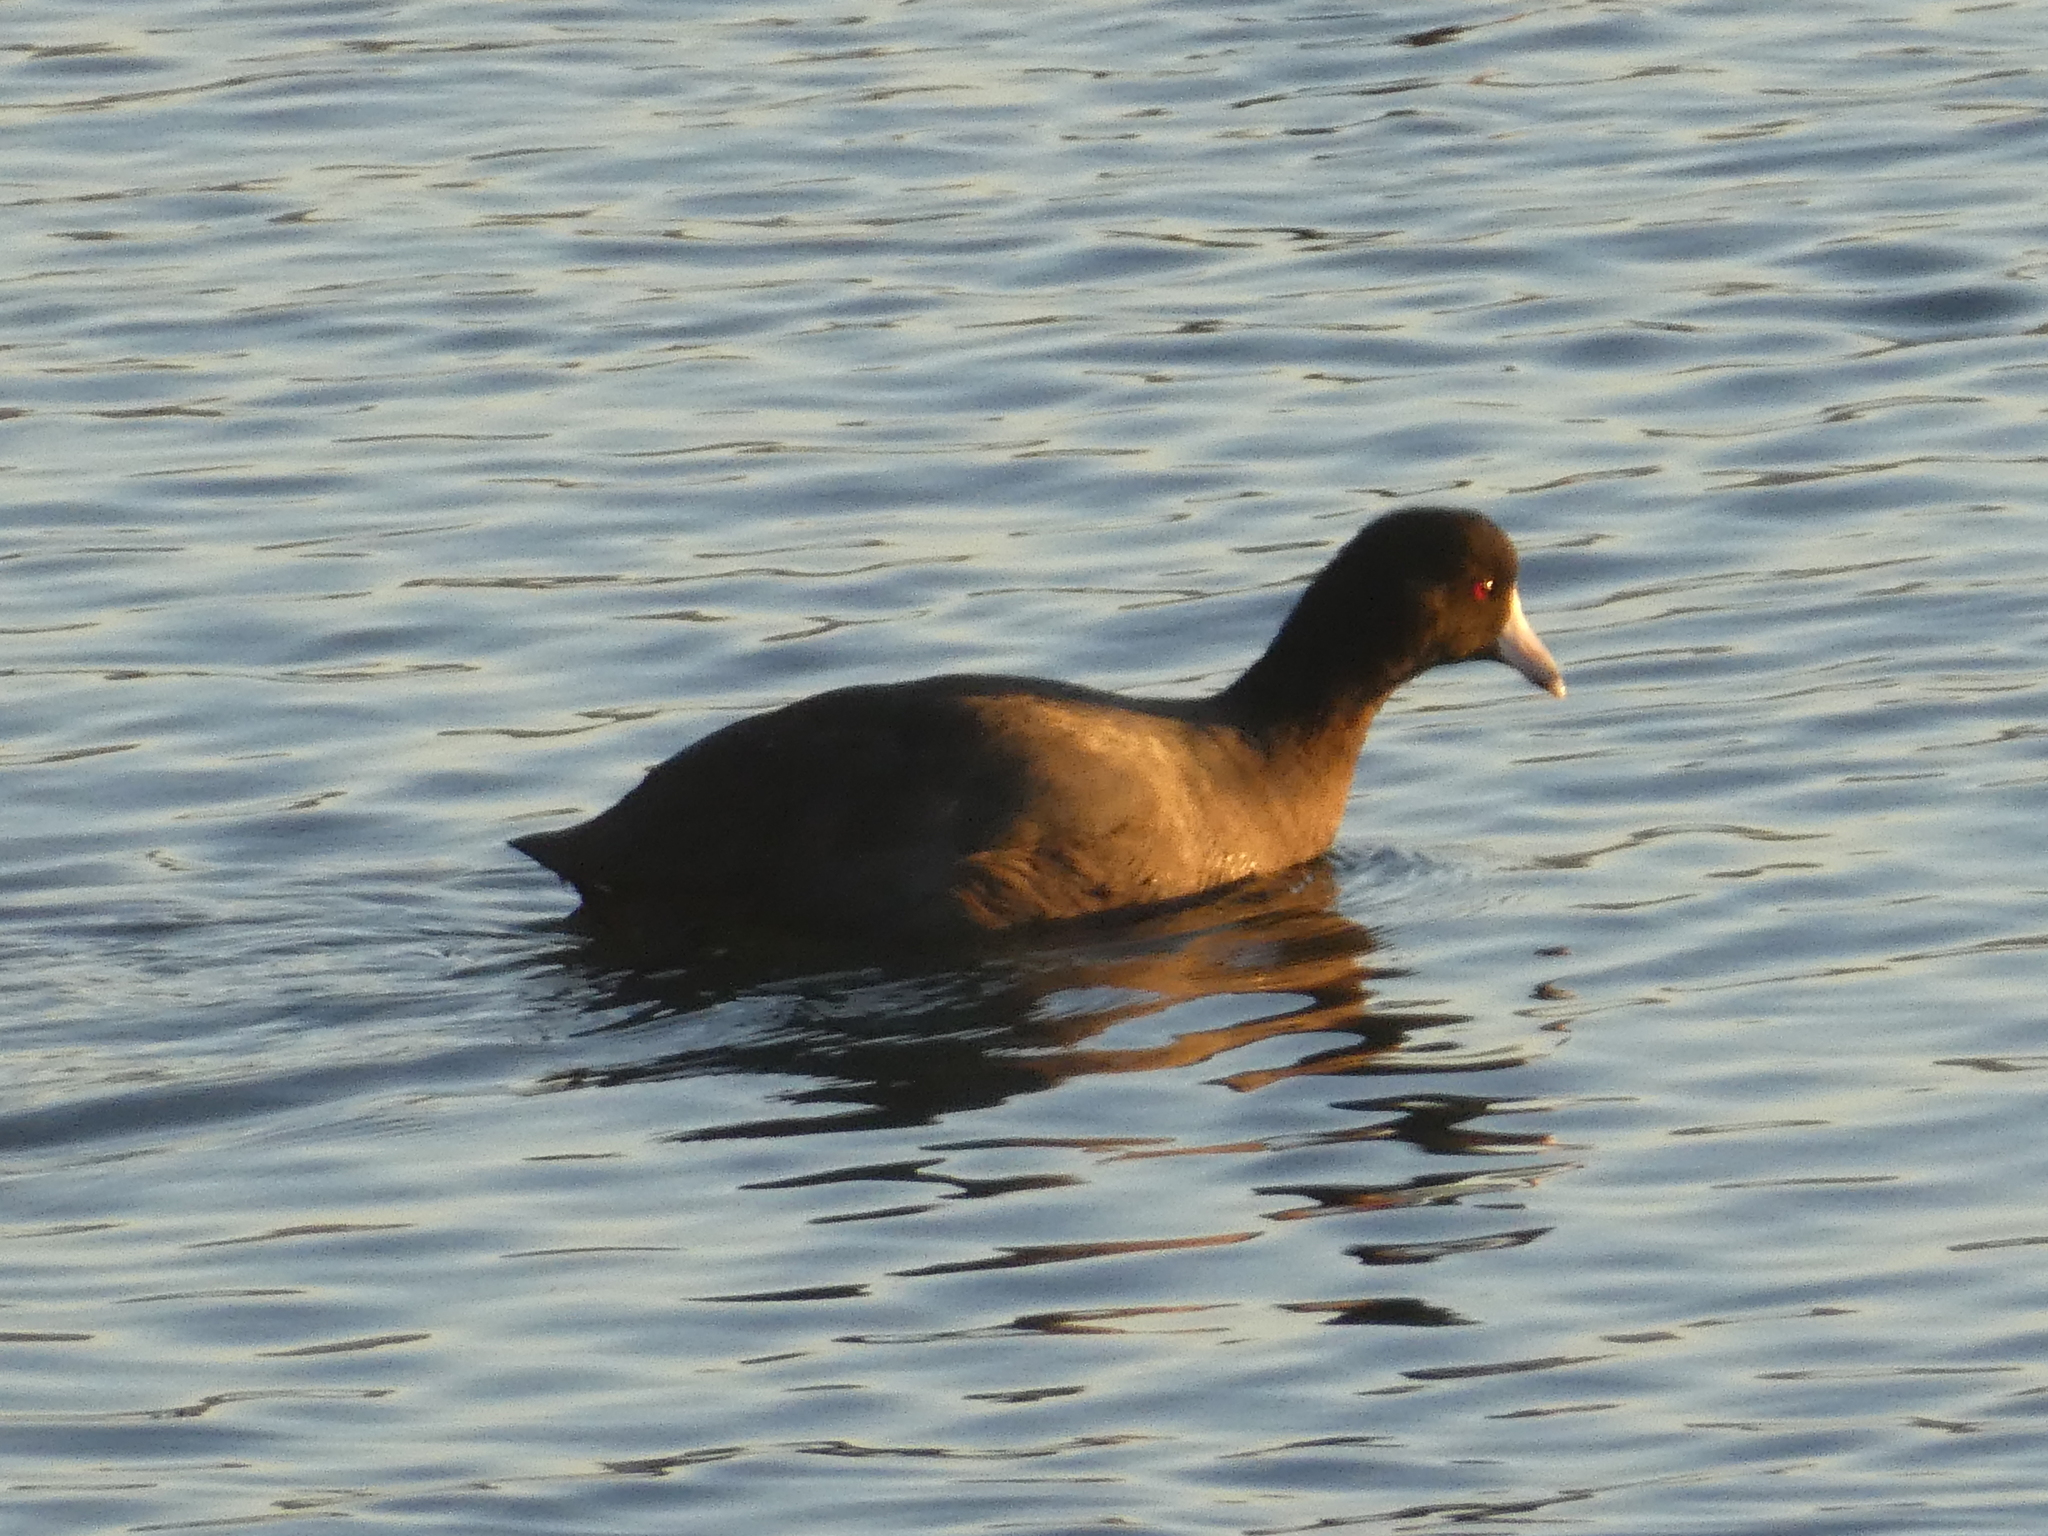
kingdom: Animalia
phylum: Chordata
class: Aves
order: Gruiformes
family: Rallidae
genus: Fulica
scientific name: Fulica americana
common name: American coot
